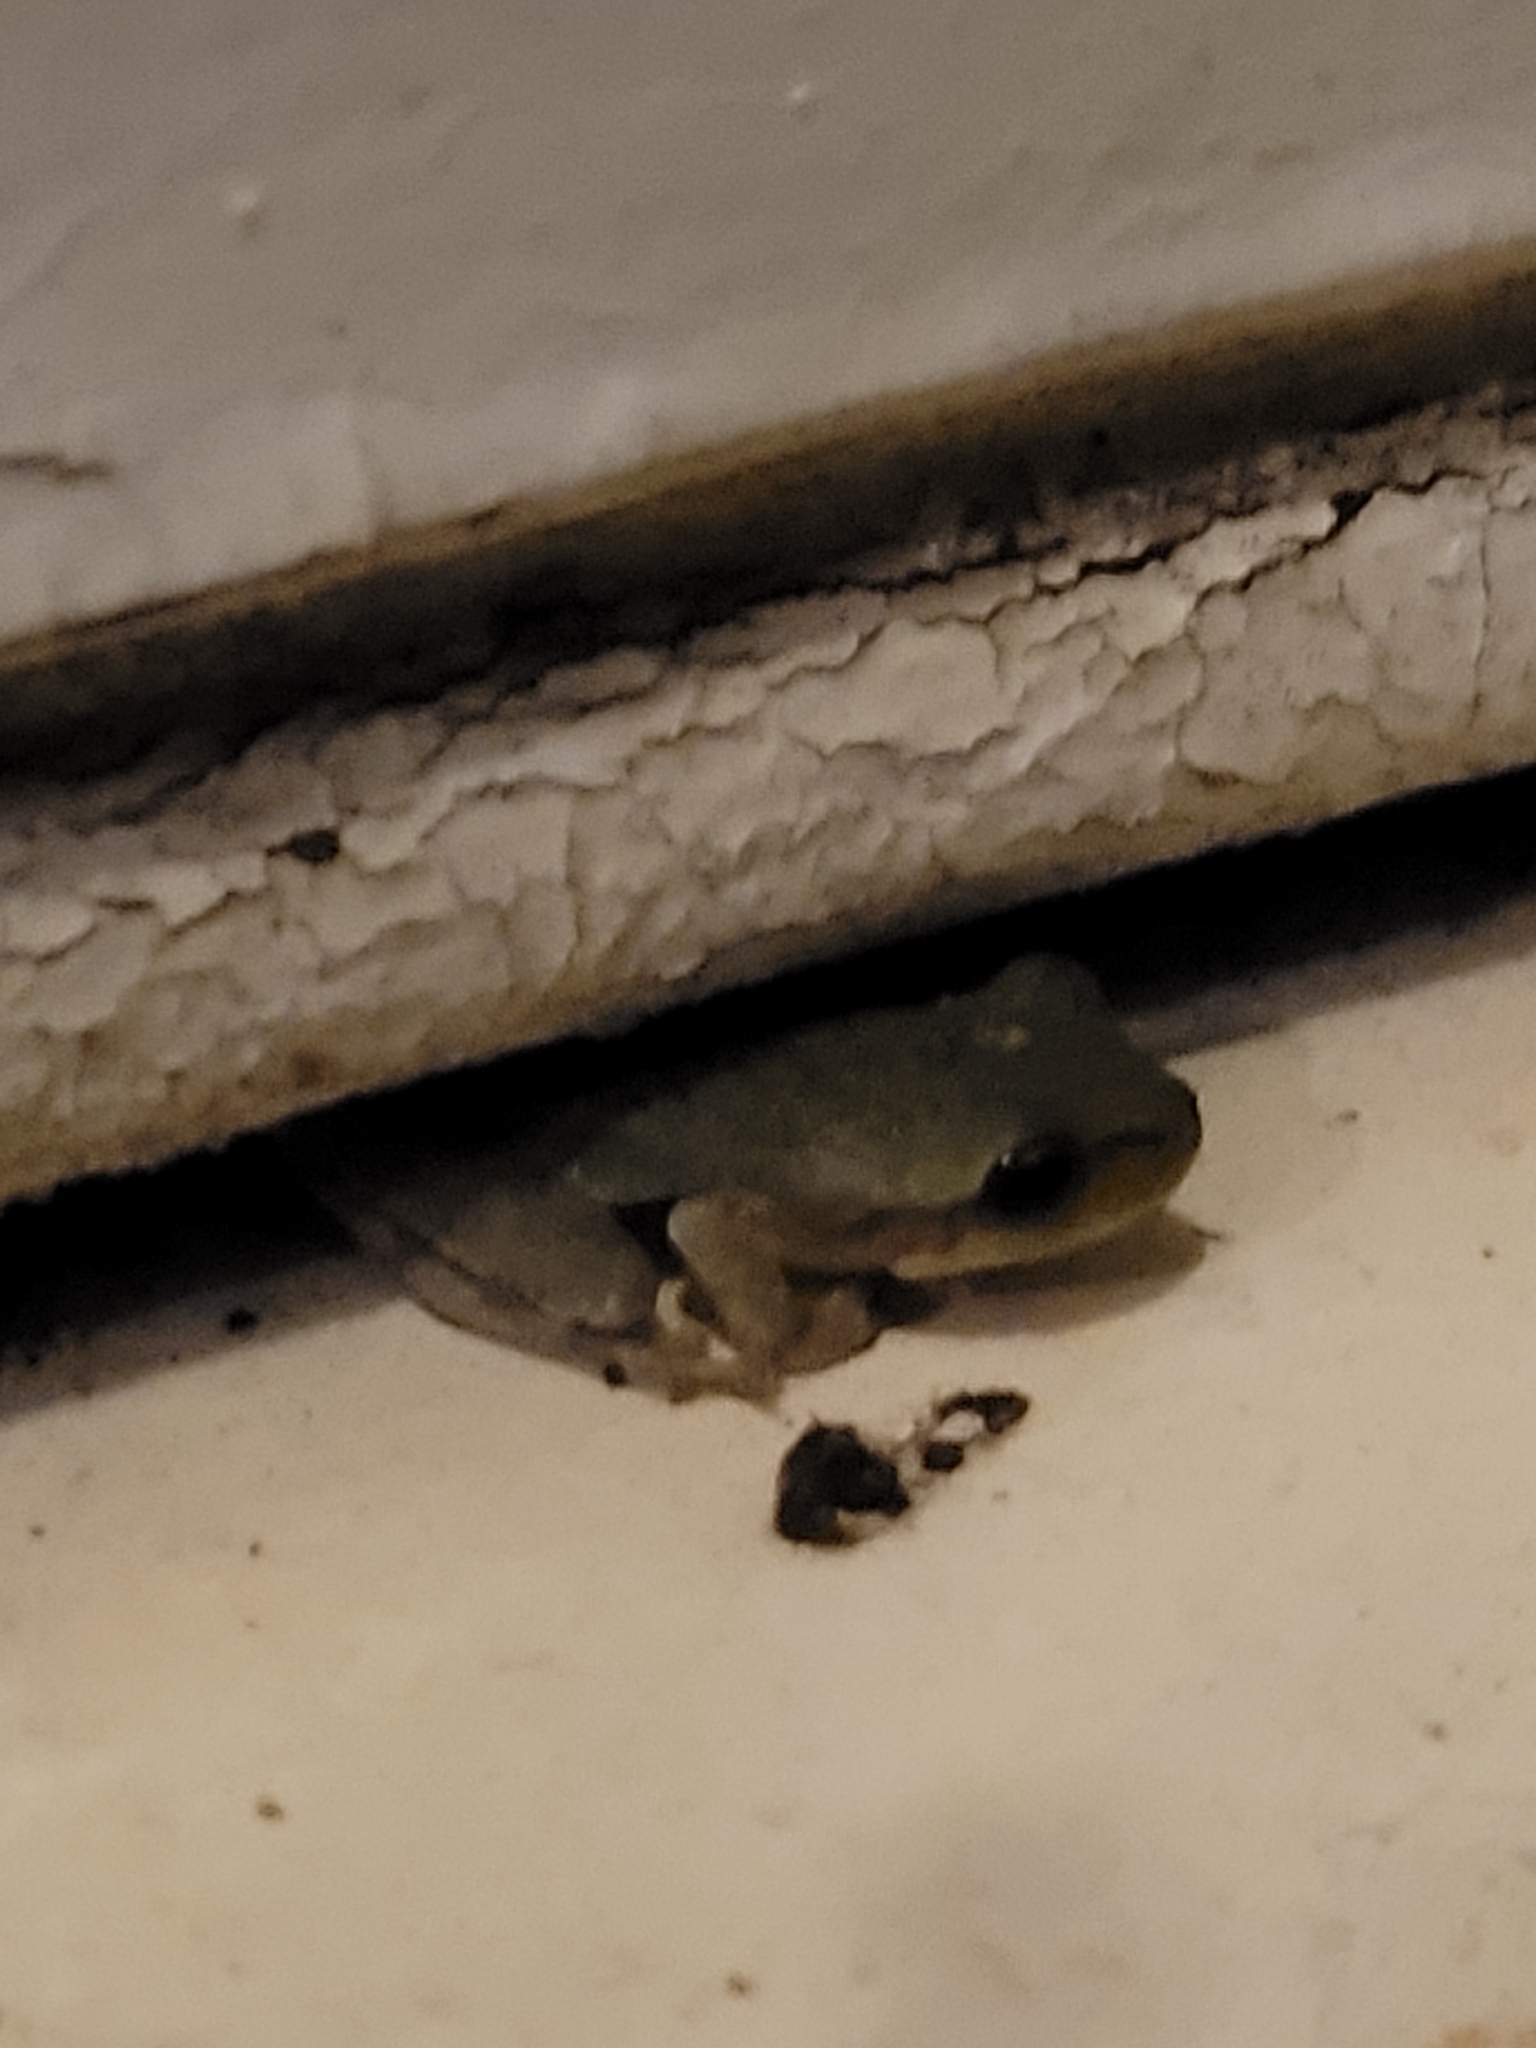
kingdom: Animalia
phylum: Chordata
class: Amphibia
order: Anura
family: Hylidae
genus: Hyla
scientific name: Hyla femoralis
